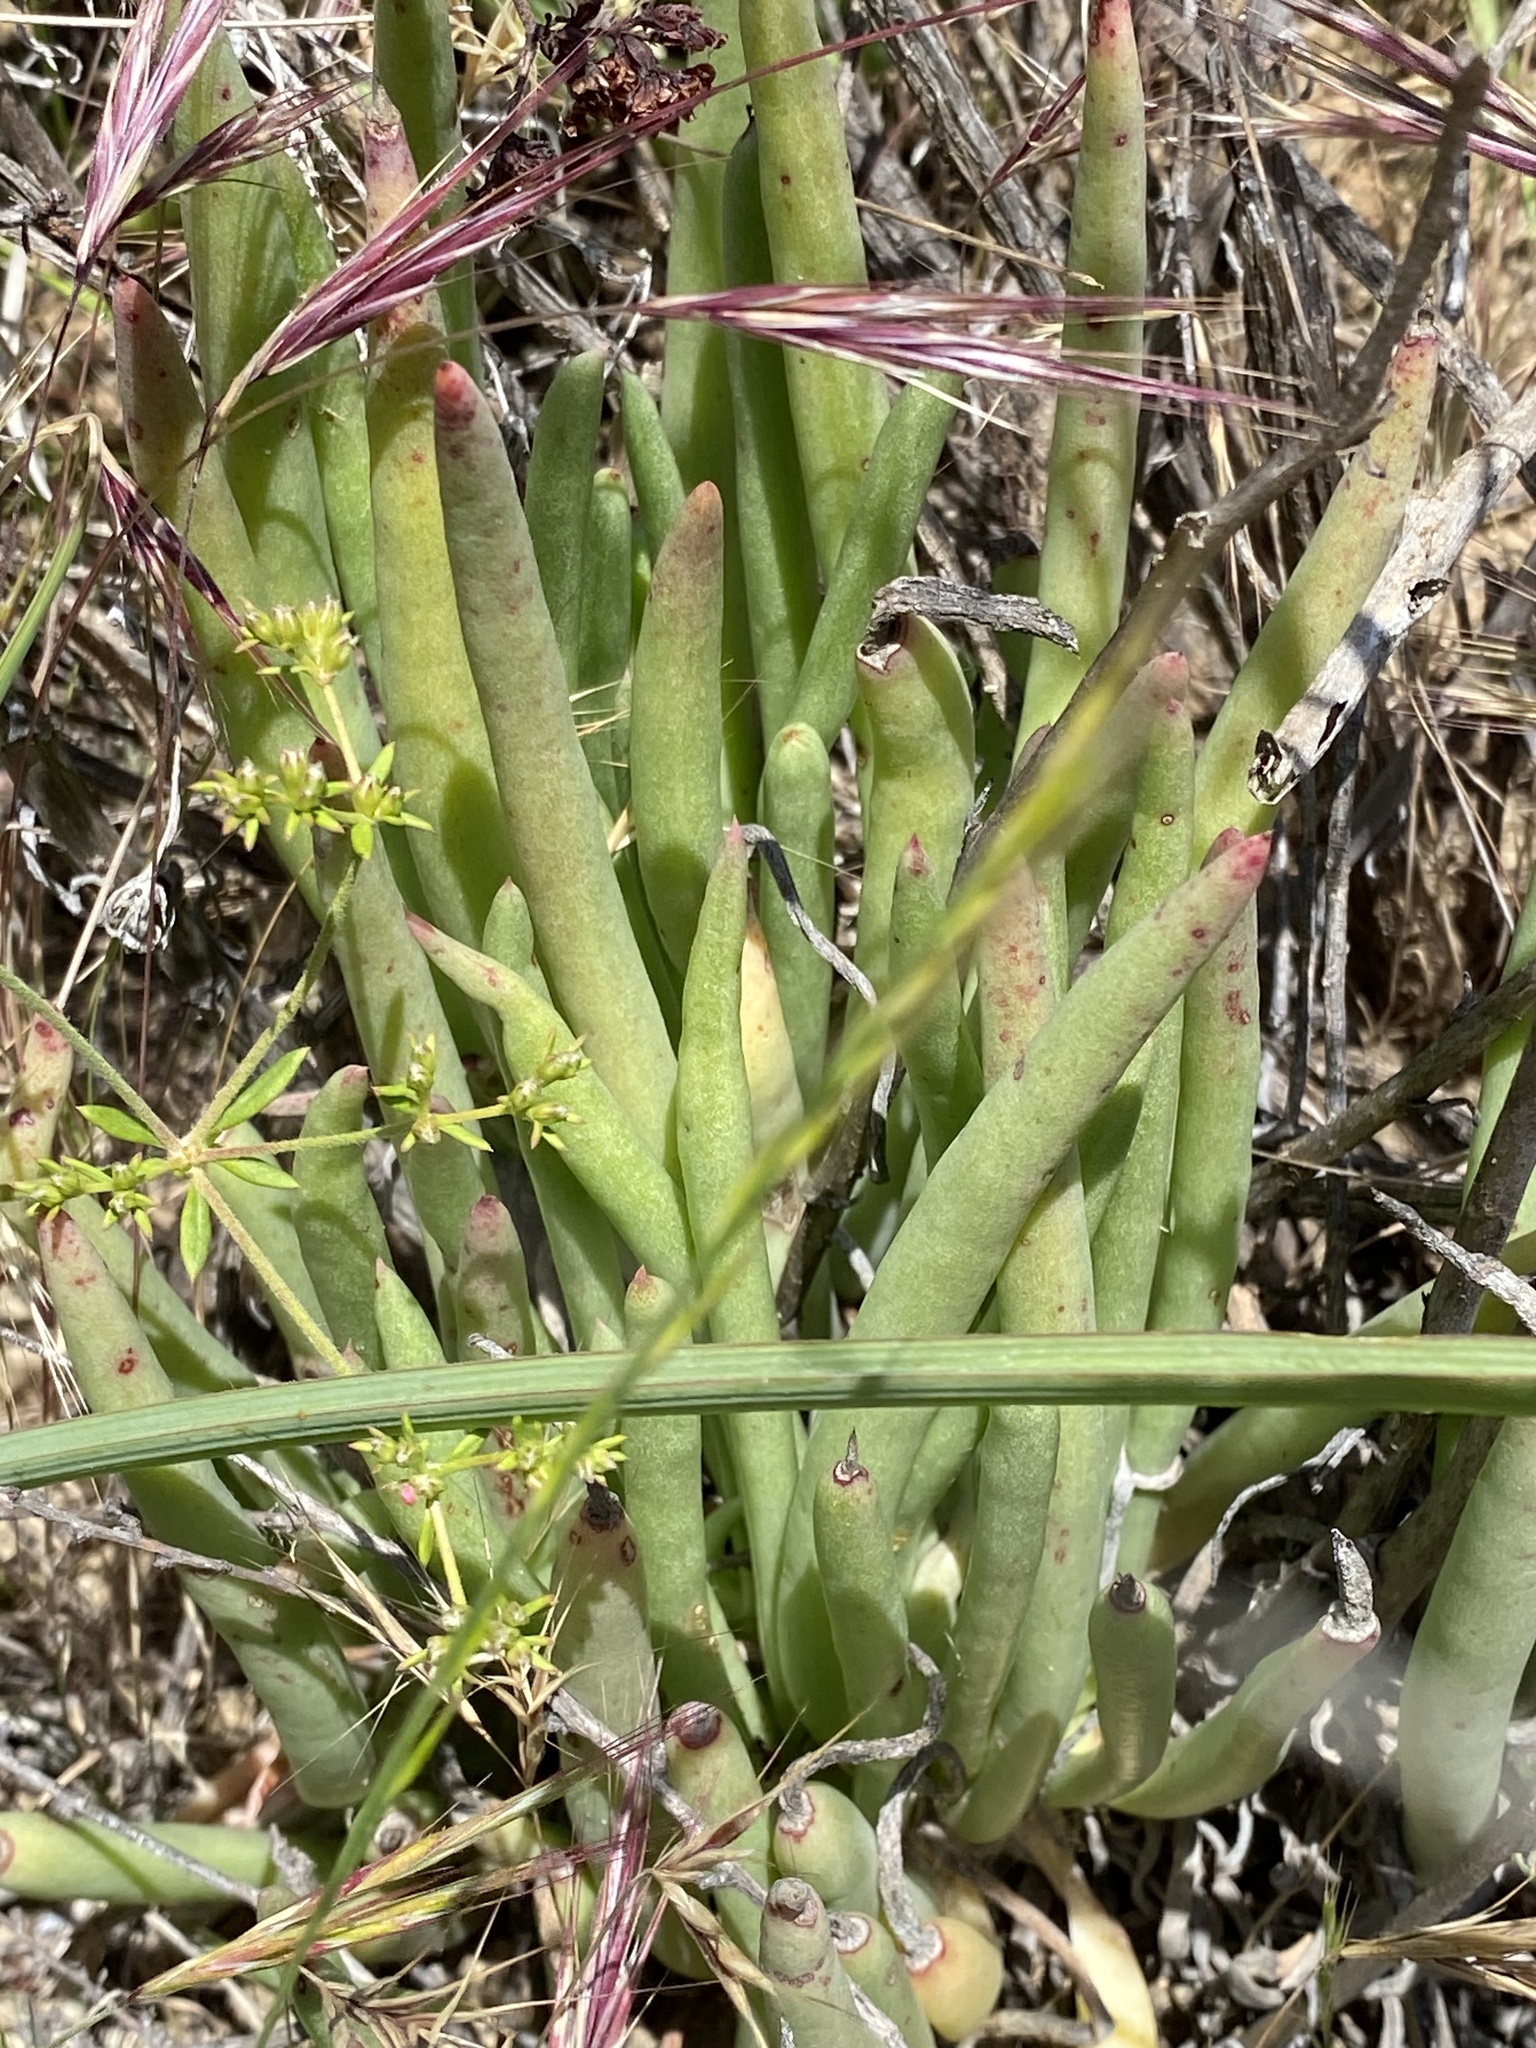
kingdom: Plantae
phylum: Tracheophyta
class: Magnoliopsida
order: Saxifragales
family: Crassulaceae
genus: Dudleya
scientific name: Dudleya edulis
